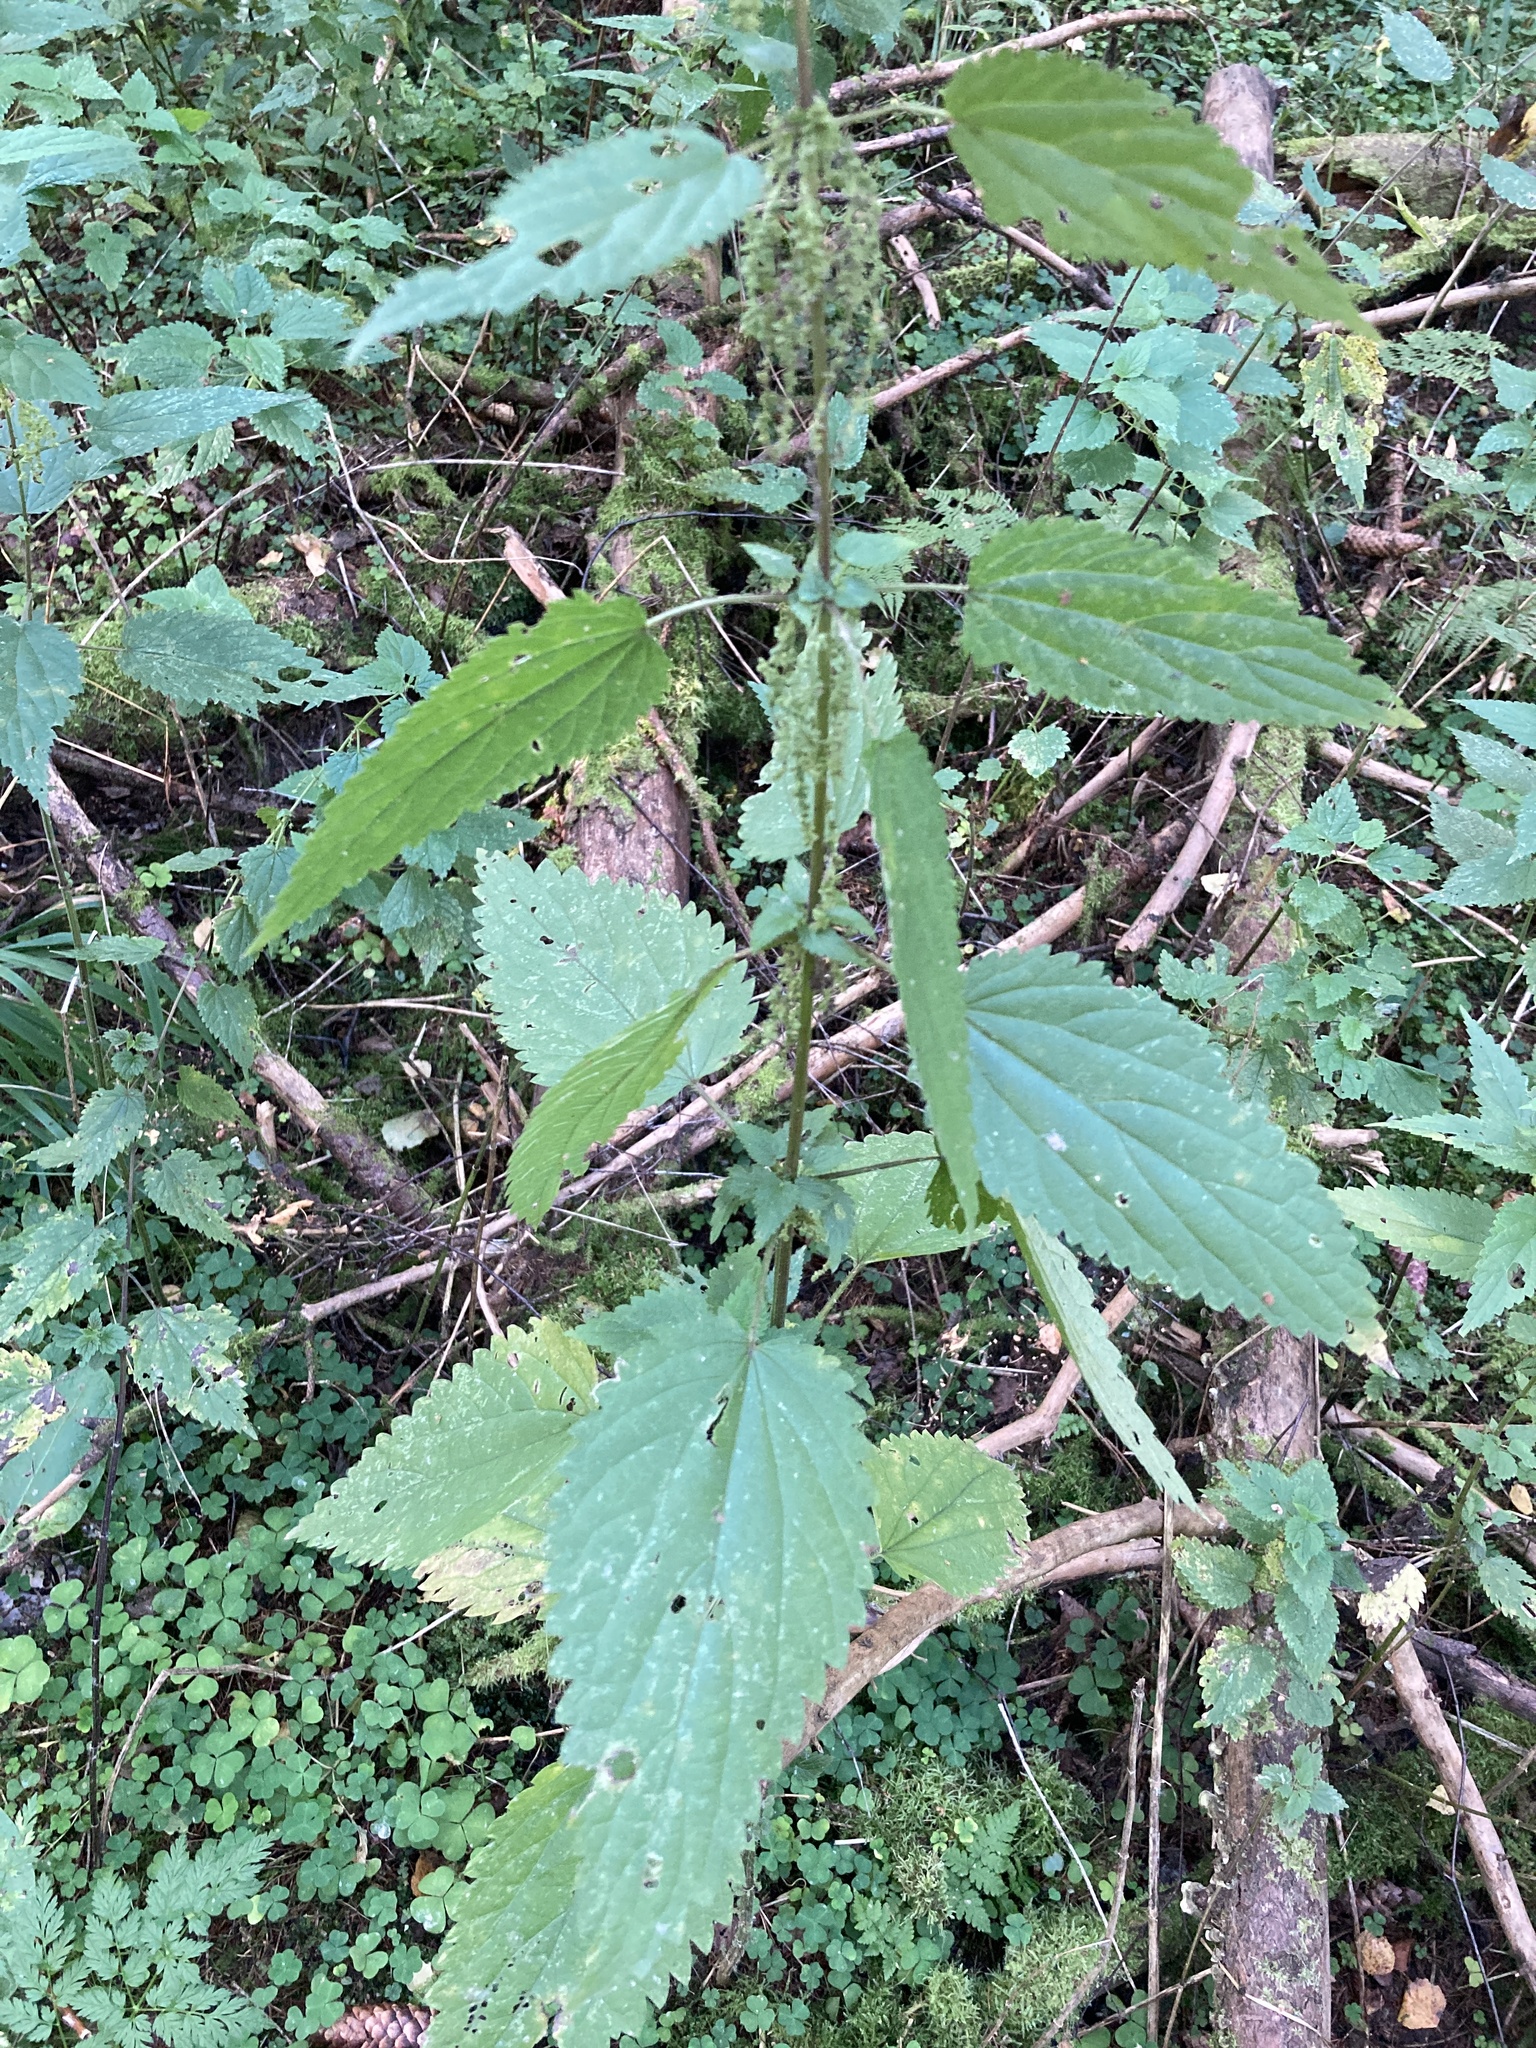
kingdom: Plantae
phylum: Tracheophyta
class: Magnoliopsida
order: Rosales
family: Urticaceae
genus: Urtica
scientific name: Urtica dioica
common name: Common nettle
